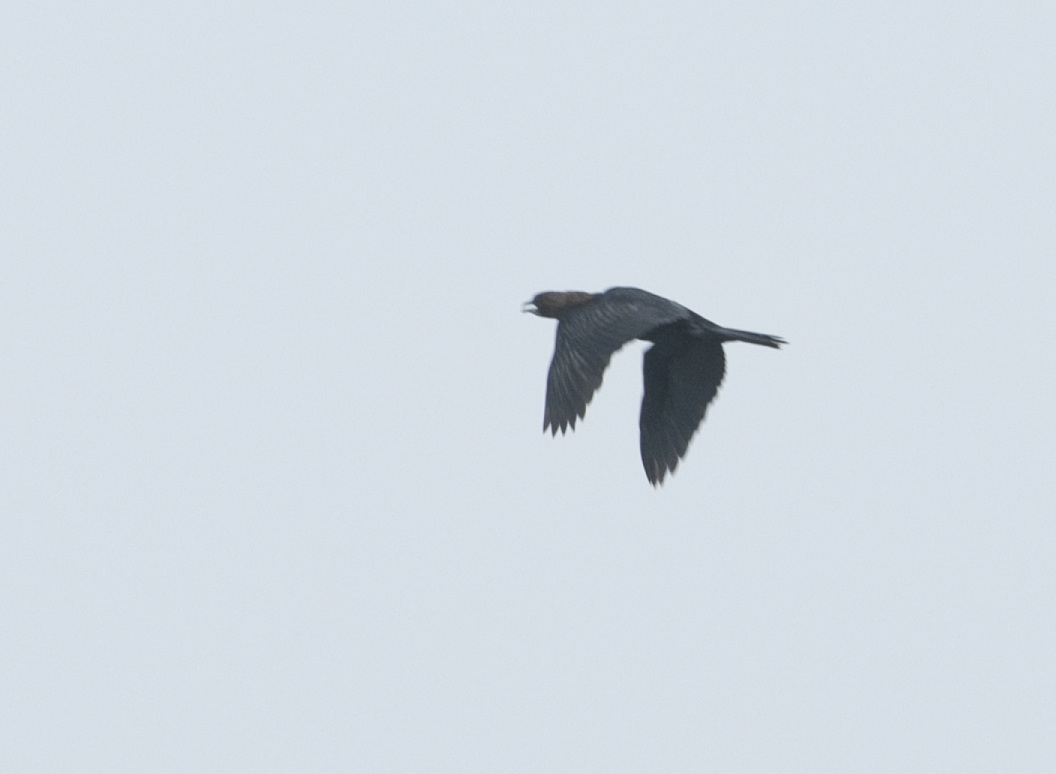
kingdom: Animalia
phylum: Chordata
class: Aves
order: Suliformes
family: Phalacrocoracidae
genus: Microcarbo
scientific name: Microcarbo pygmaeus
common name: Pygmy cormorant
